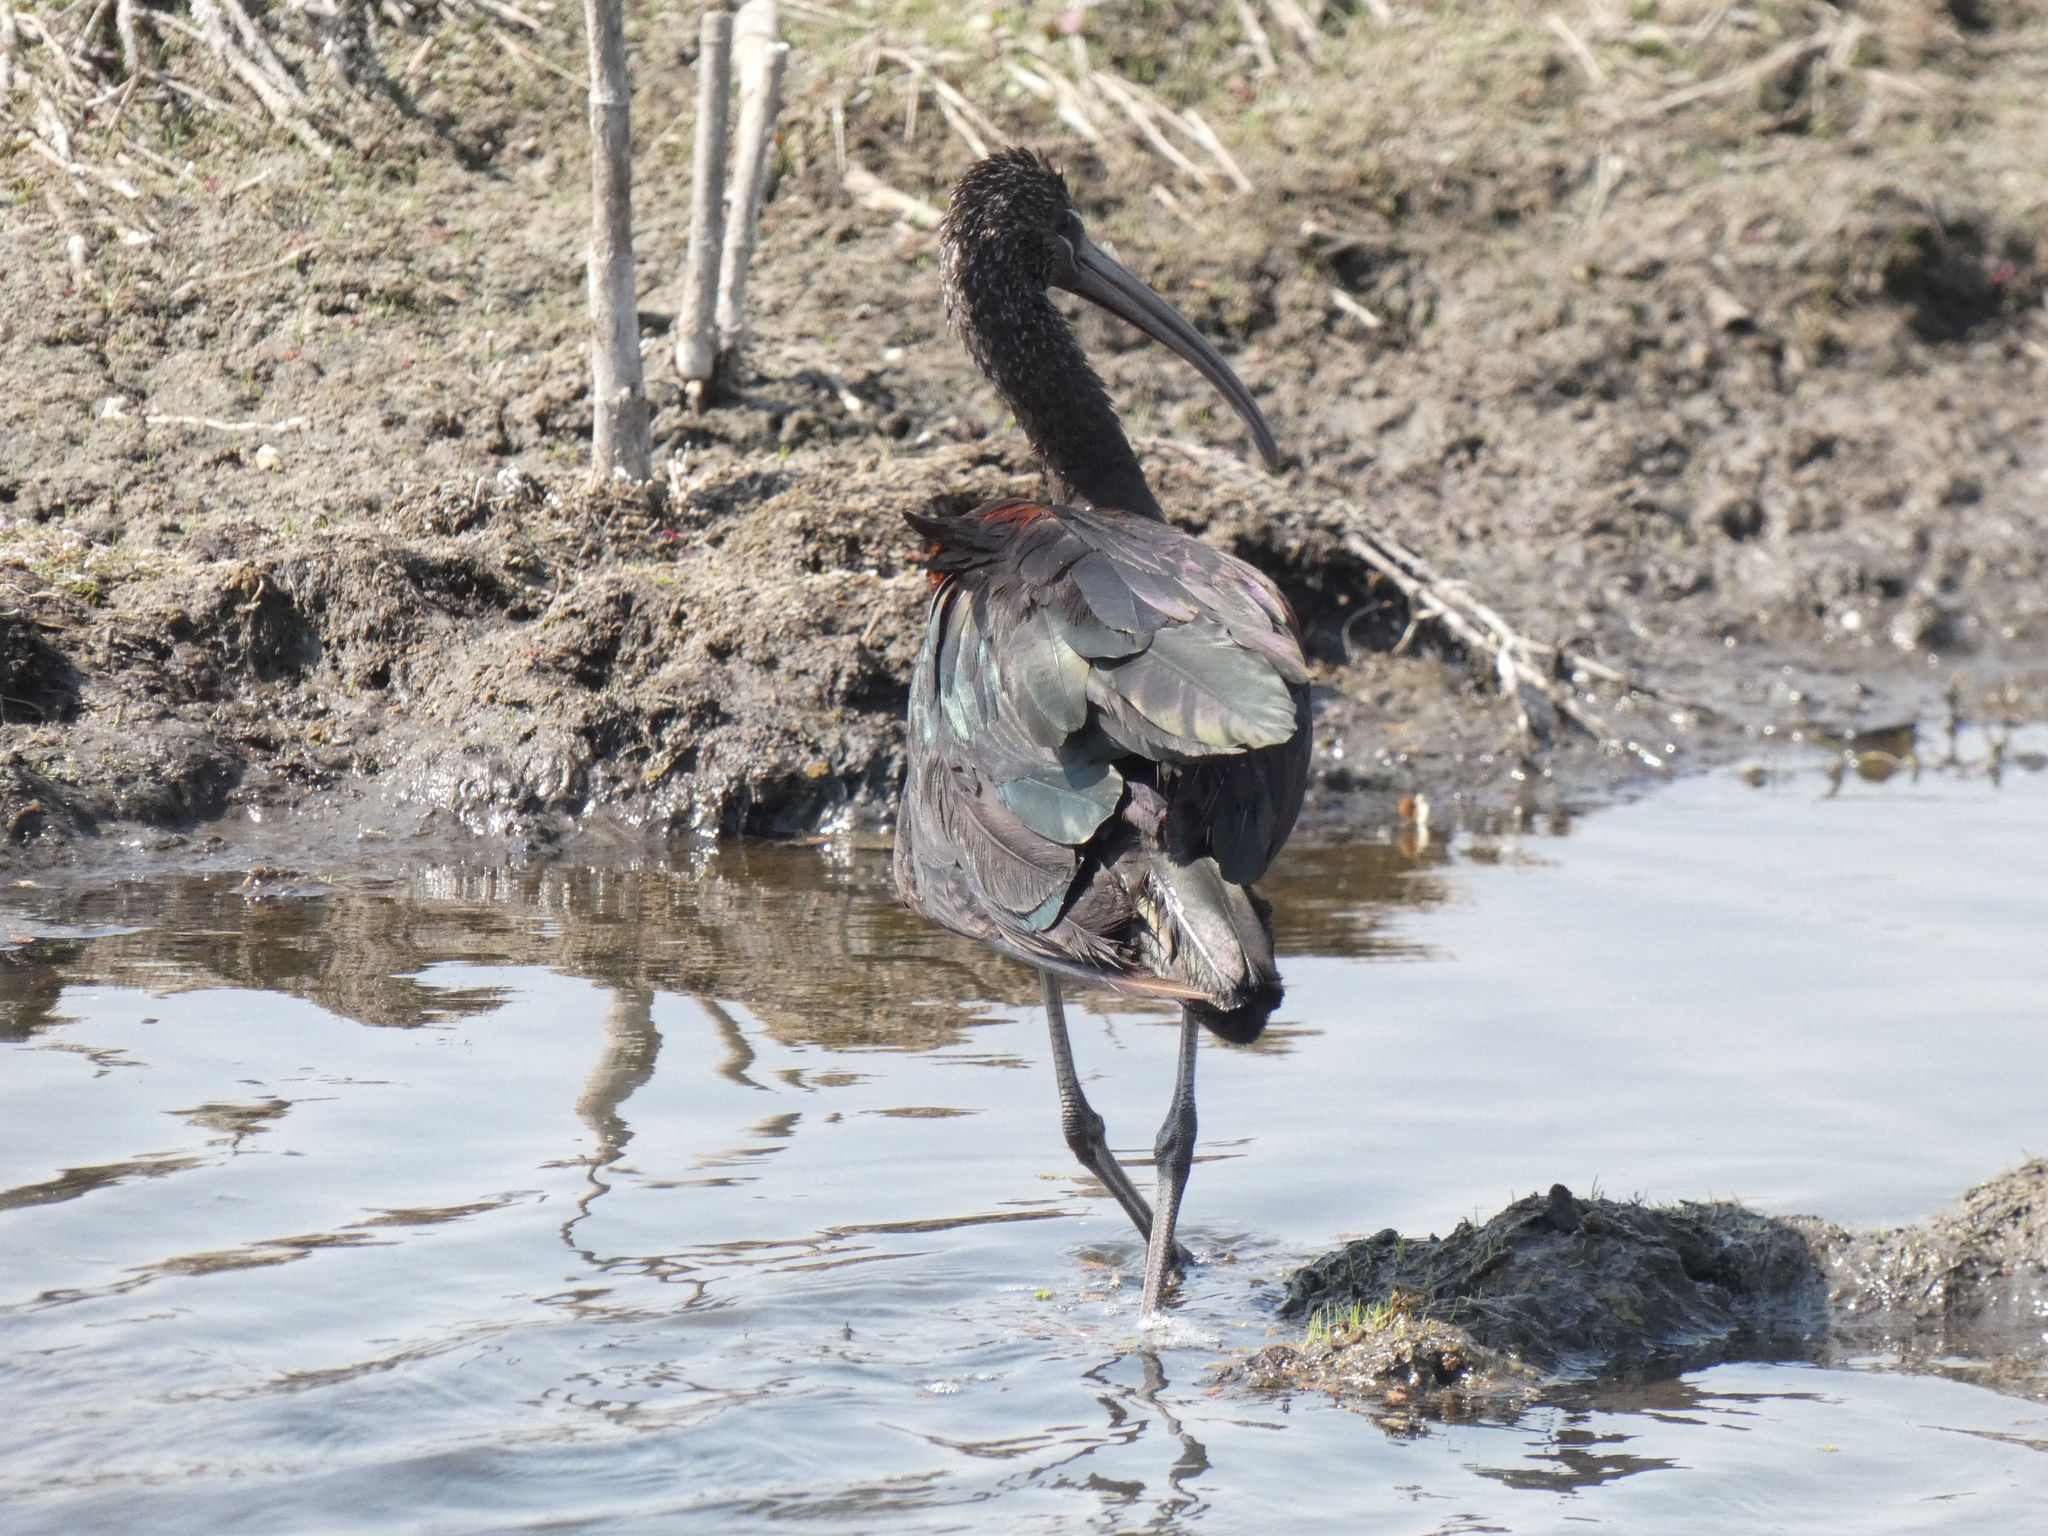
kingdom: Animalia
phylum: Chordata
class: Aves
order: Pelecaniformes
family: Threskiornithidae
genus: Plegadis
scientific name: Plegadis falcinellus
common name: Glossy ibis
